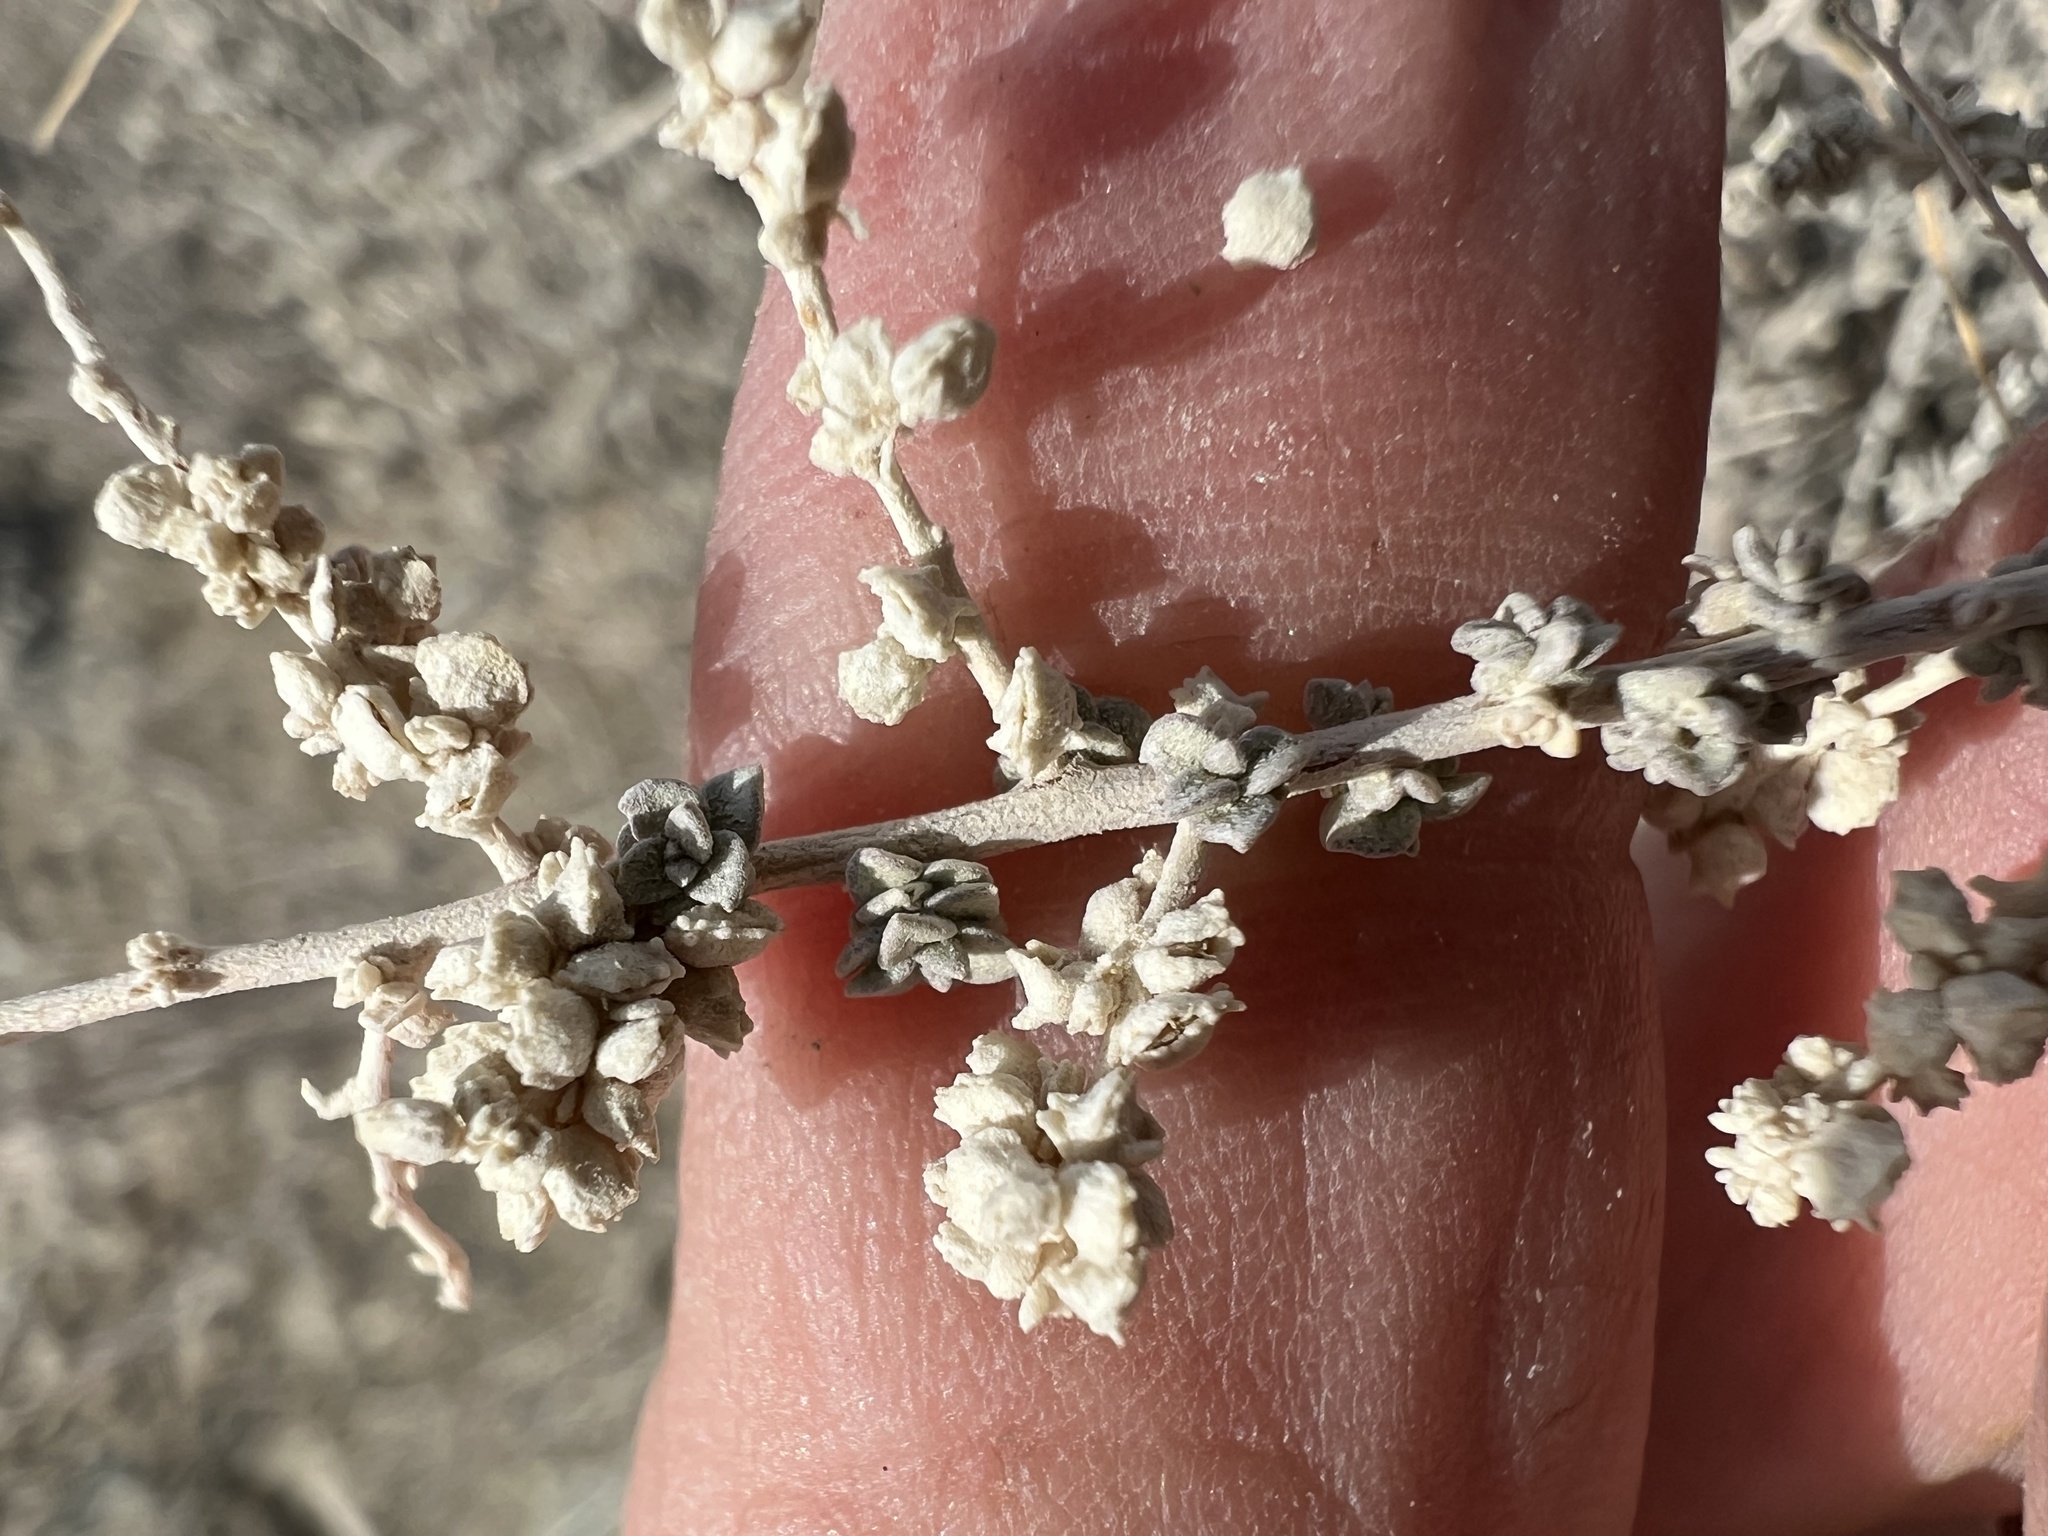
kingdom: Plantae
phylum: Tracheophyta
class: Magnoliopsida
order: Caryophyllales
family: Amaranthaceae
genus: Atriplex
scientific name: Atriplex polycarpa
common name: Desert saltbush
